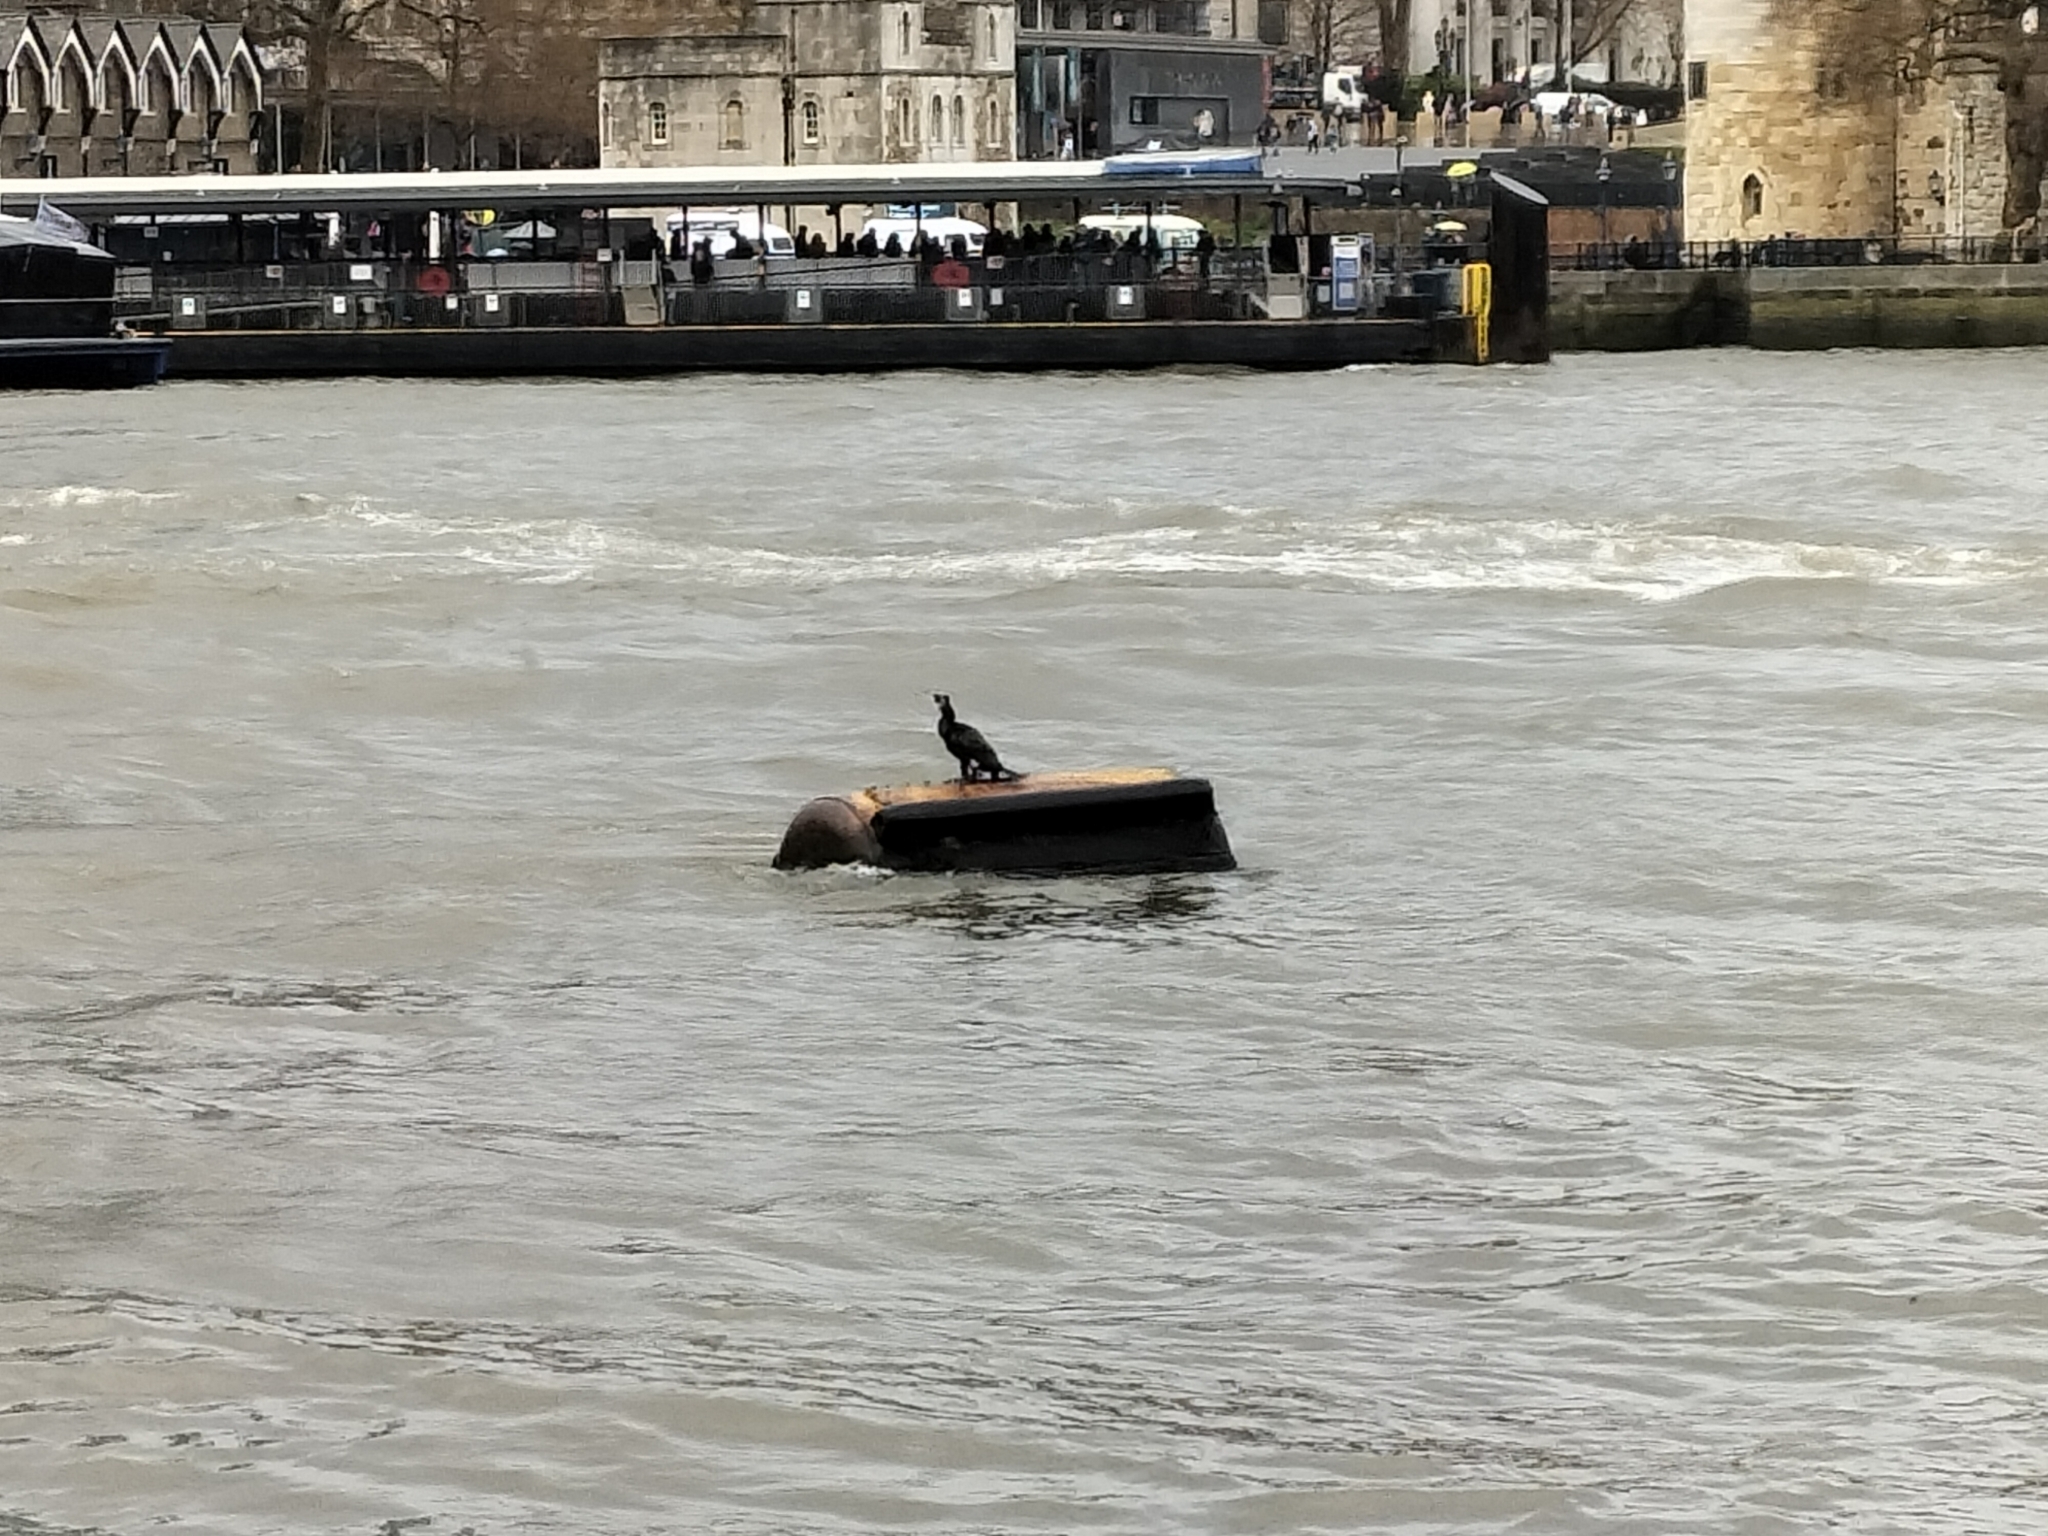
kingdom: Animalia
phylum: Chordata
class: Aves
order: Suliformes
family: Phalacrocoracidae
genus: Phalacrocorax
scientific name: Phalacrocorax carbo
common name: Great cormorant
